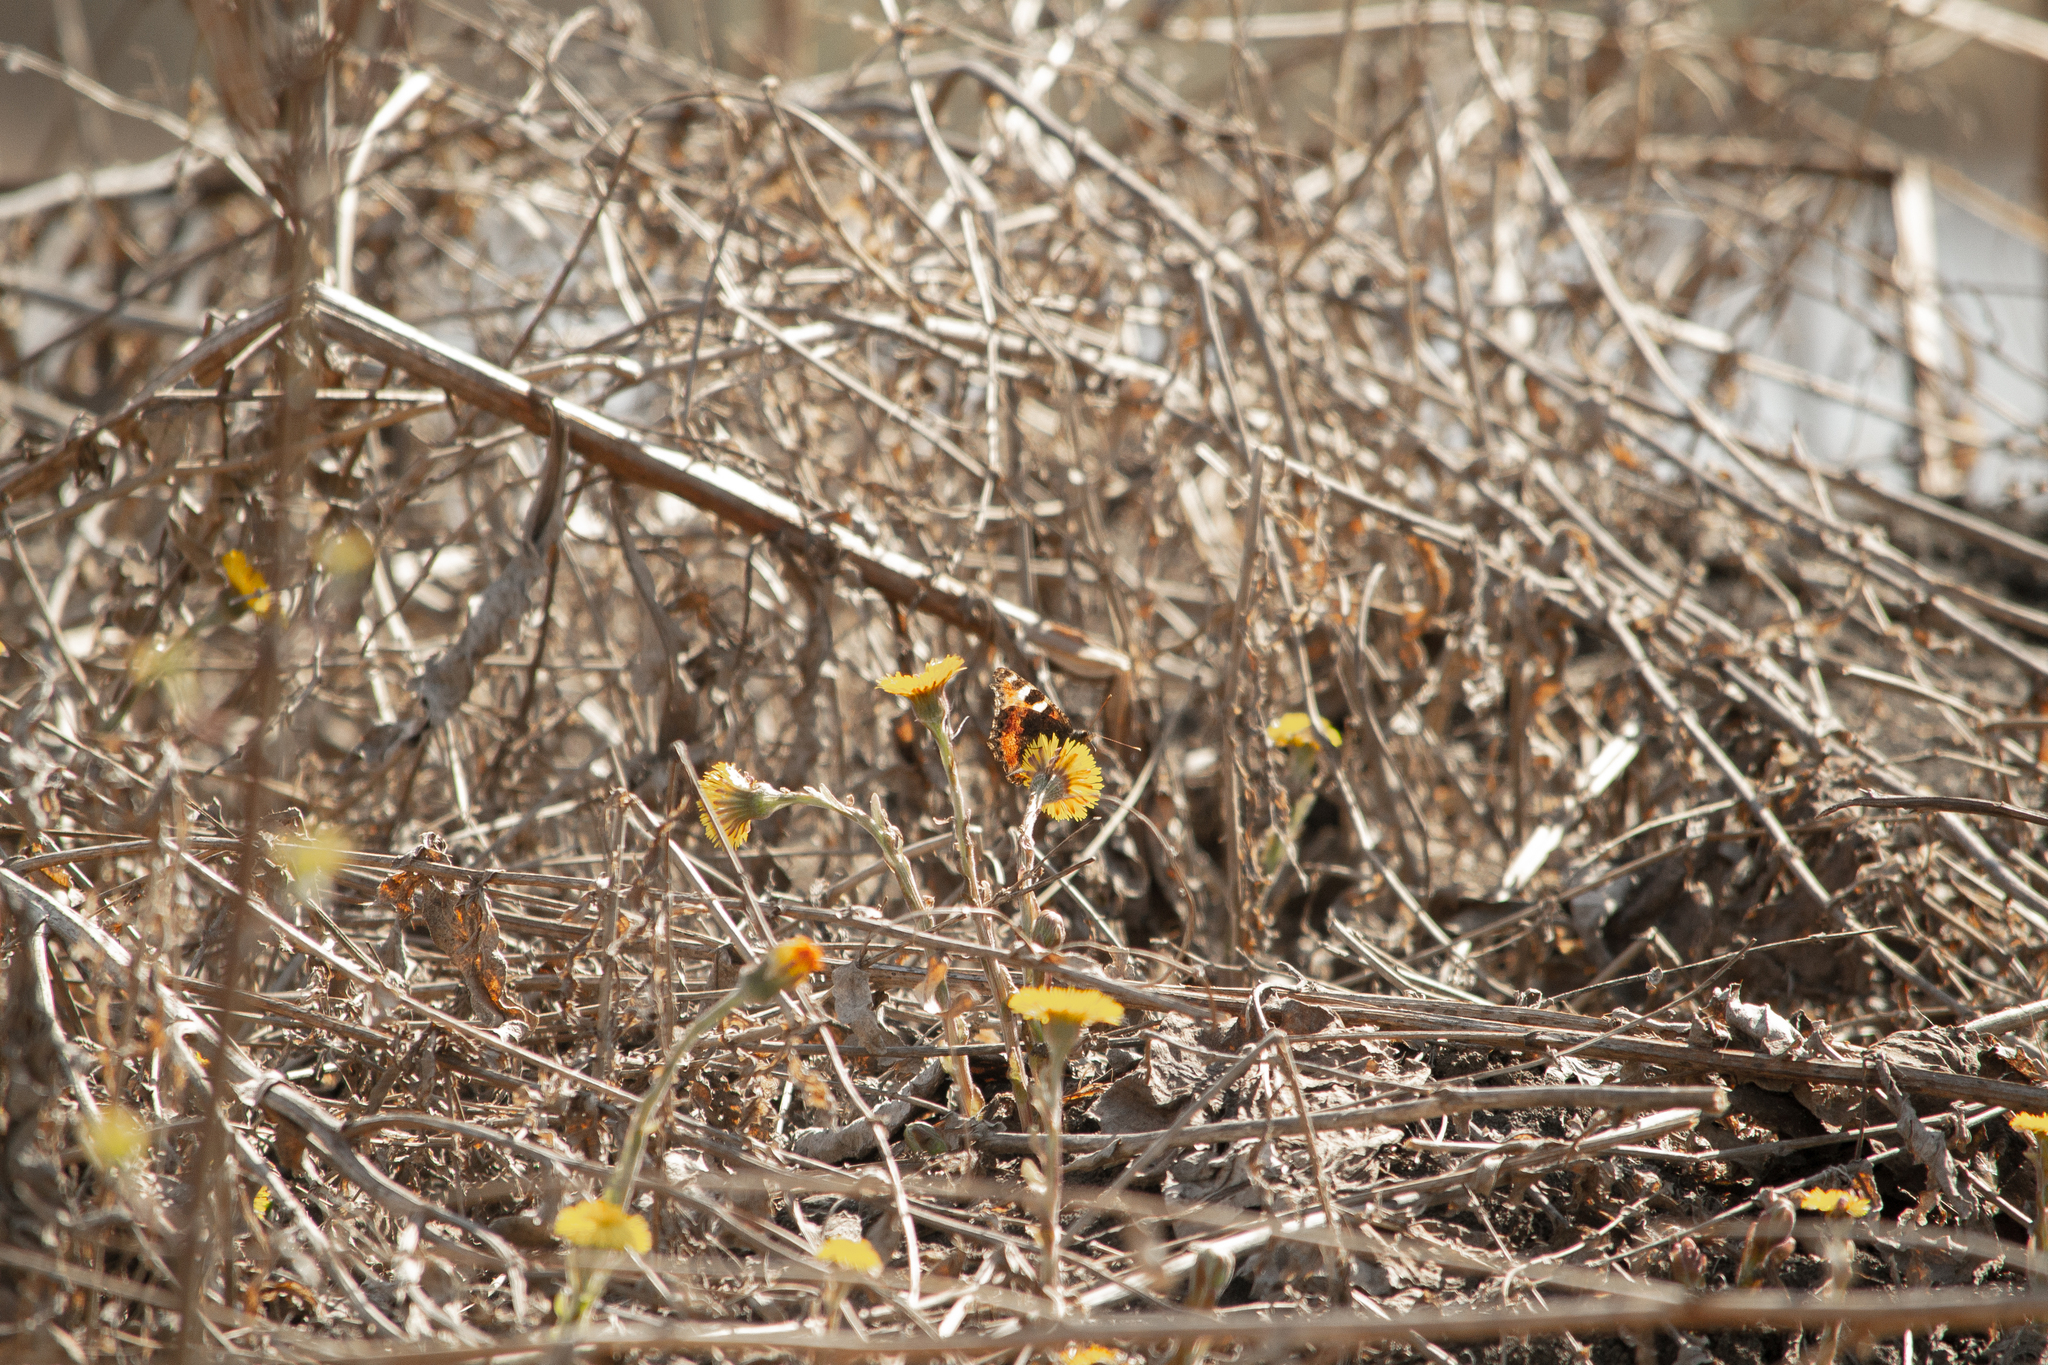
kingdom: Animalia
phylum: Arthropoda
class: Insecta
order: Lepidoptera
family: Nymphalidae
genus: Aglais
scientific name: Aglais urticae
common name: Small tortoiseshell
